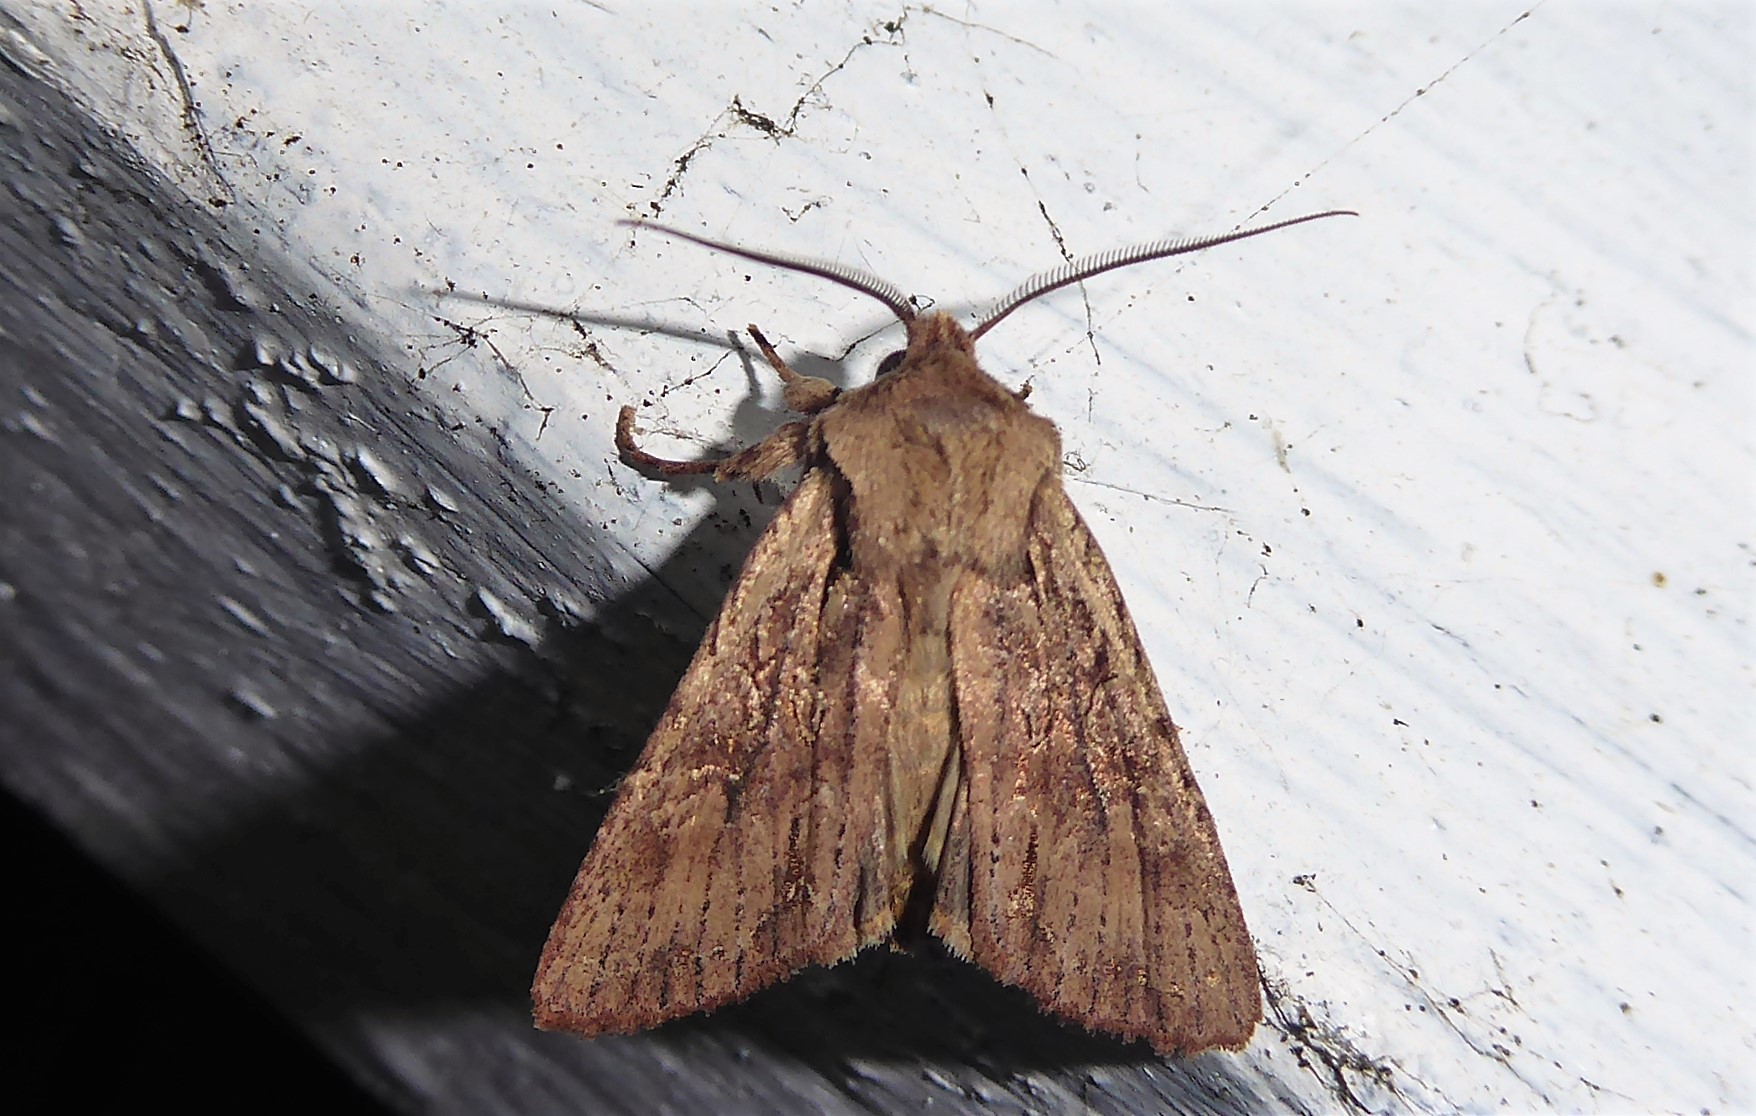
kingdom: Animalia
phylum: Arthropoda
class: Insecta
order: Lepidoptera
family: Noctuidae
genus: Ichneutica
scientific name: Ichneutica
